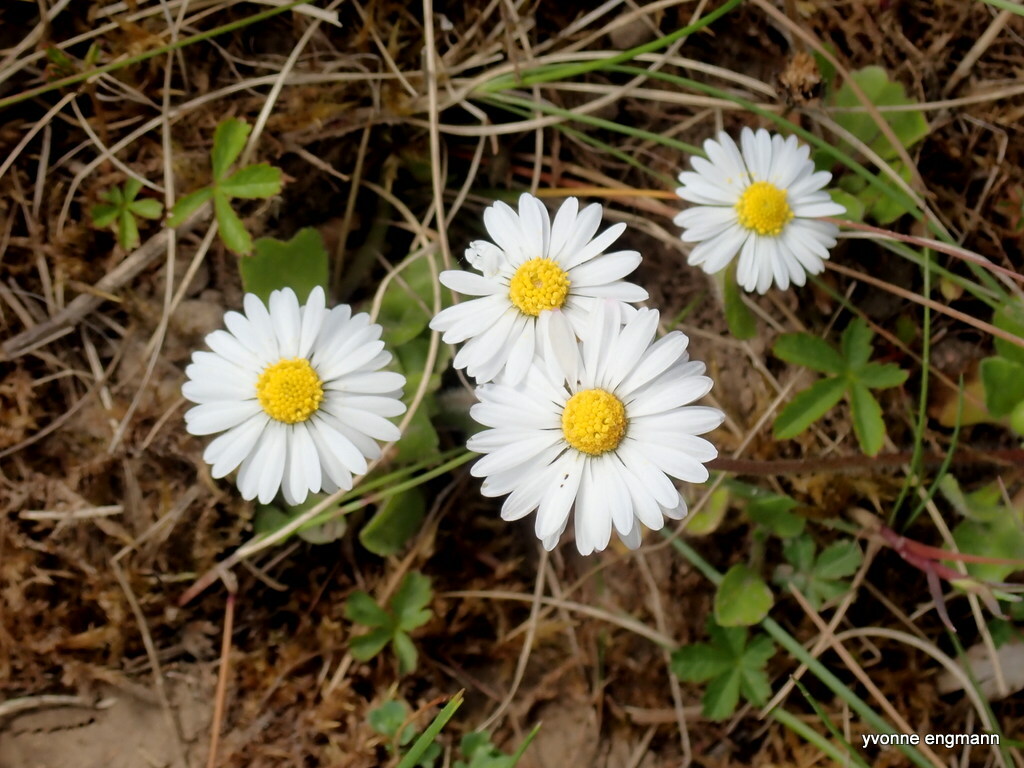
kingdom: Plantae
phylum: Tracheophyta
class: Magnoliopsida
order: Asterales
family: Asteraceae
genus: Bellis
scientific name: Bellis perennis
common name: Lawndaisy
